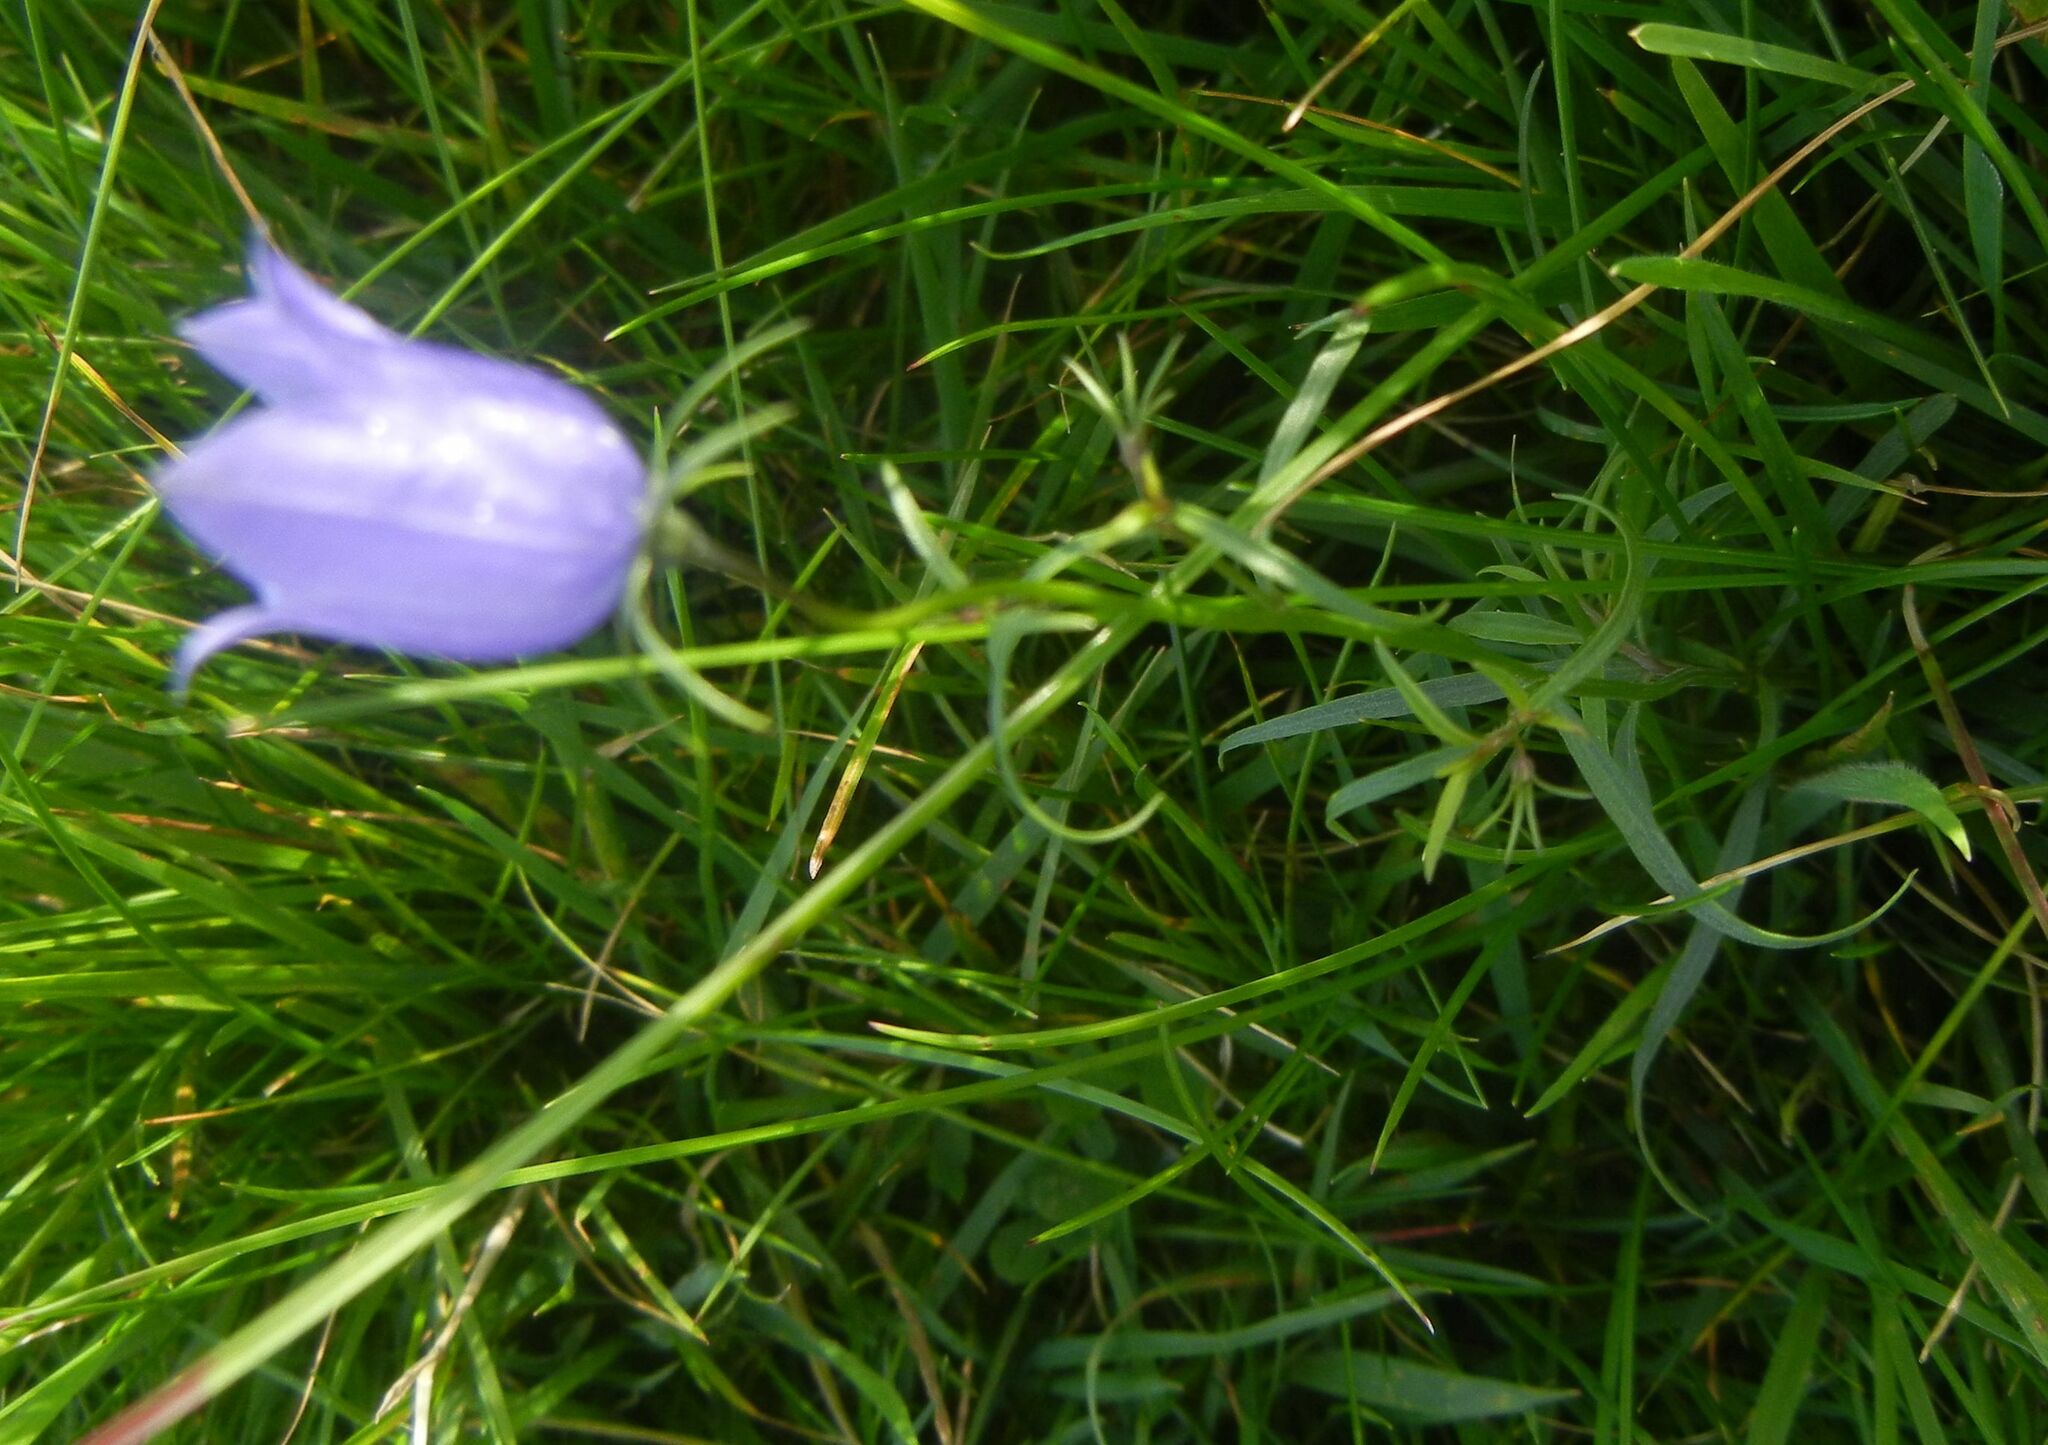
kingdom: Plantae
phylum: Tracheophyta
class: Magnoliopsida
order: Asterales
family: Campanulaceae
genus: Campanula
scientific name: Campanula rotundifolia
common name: Harebell
